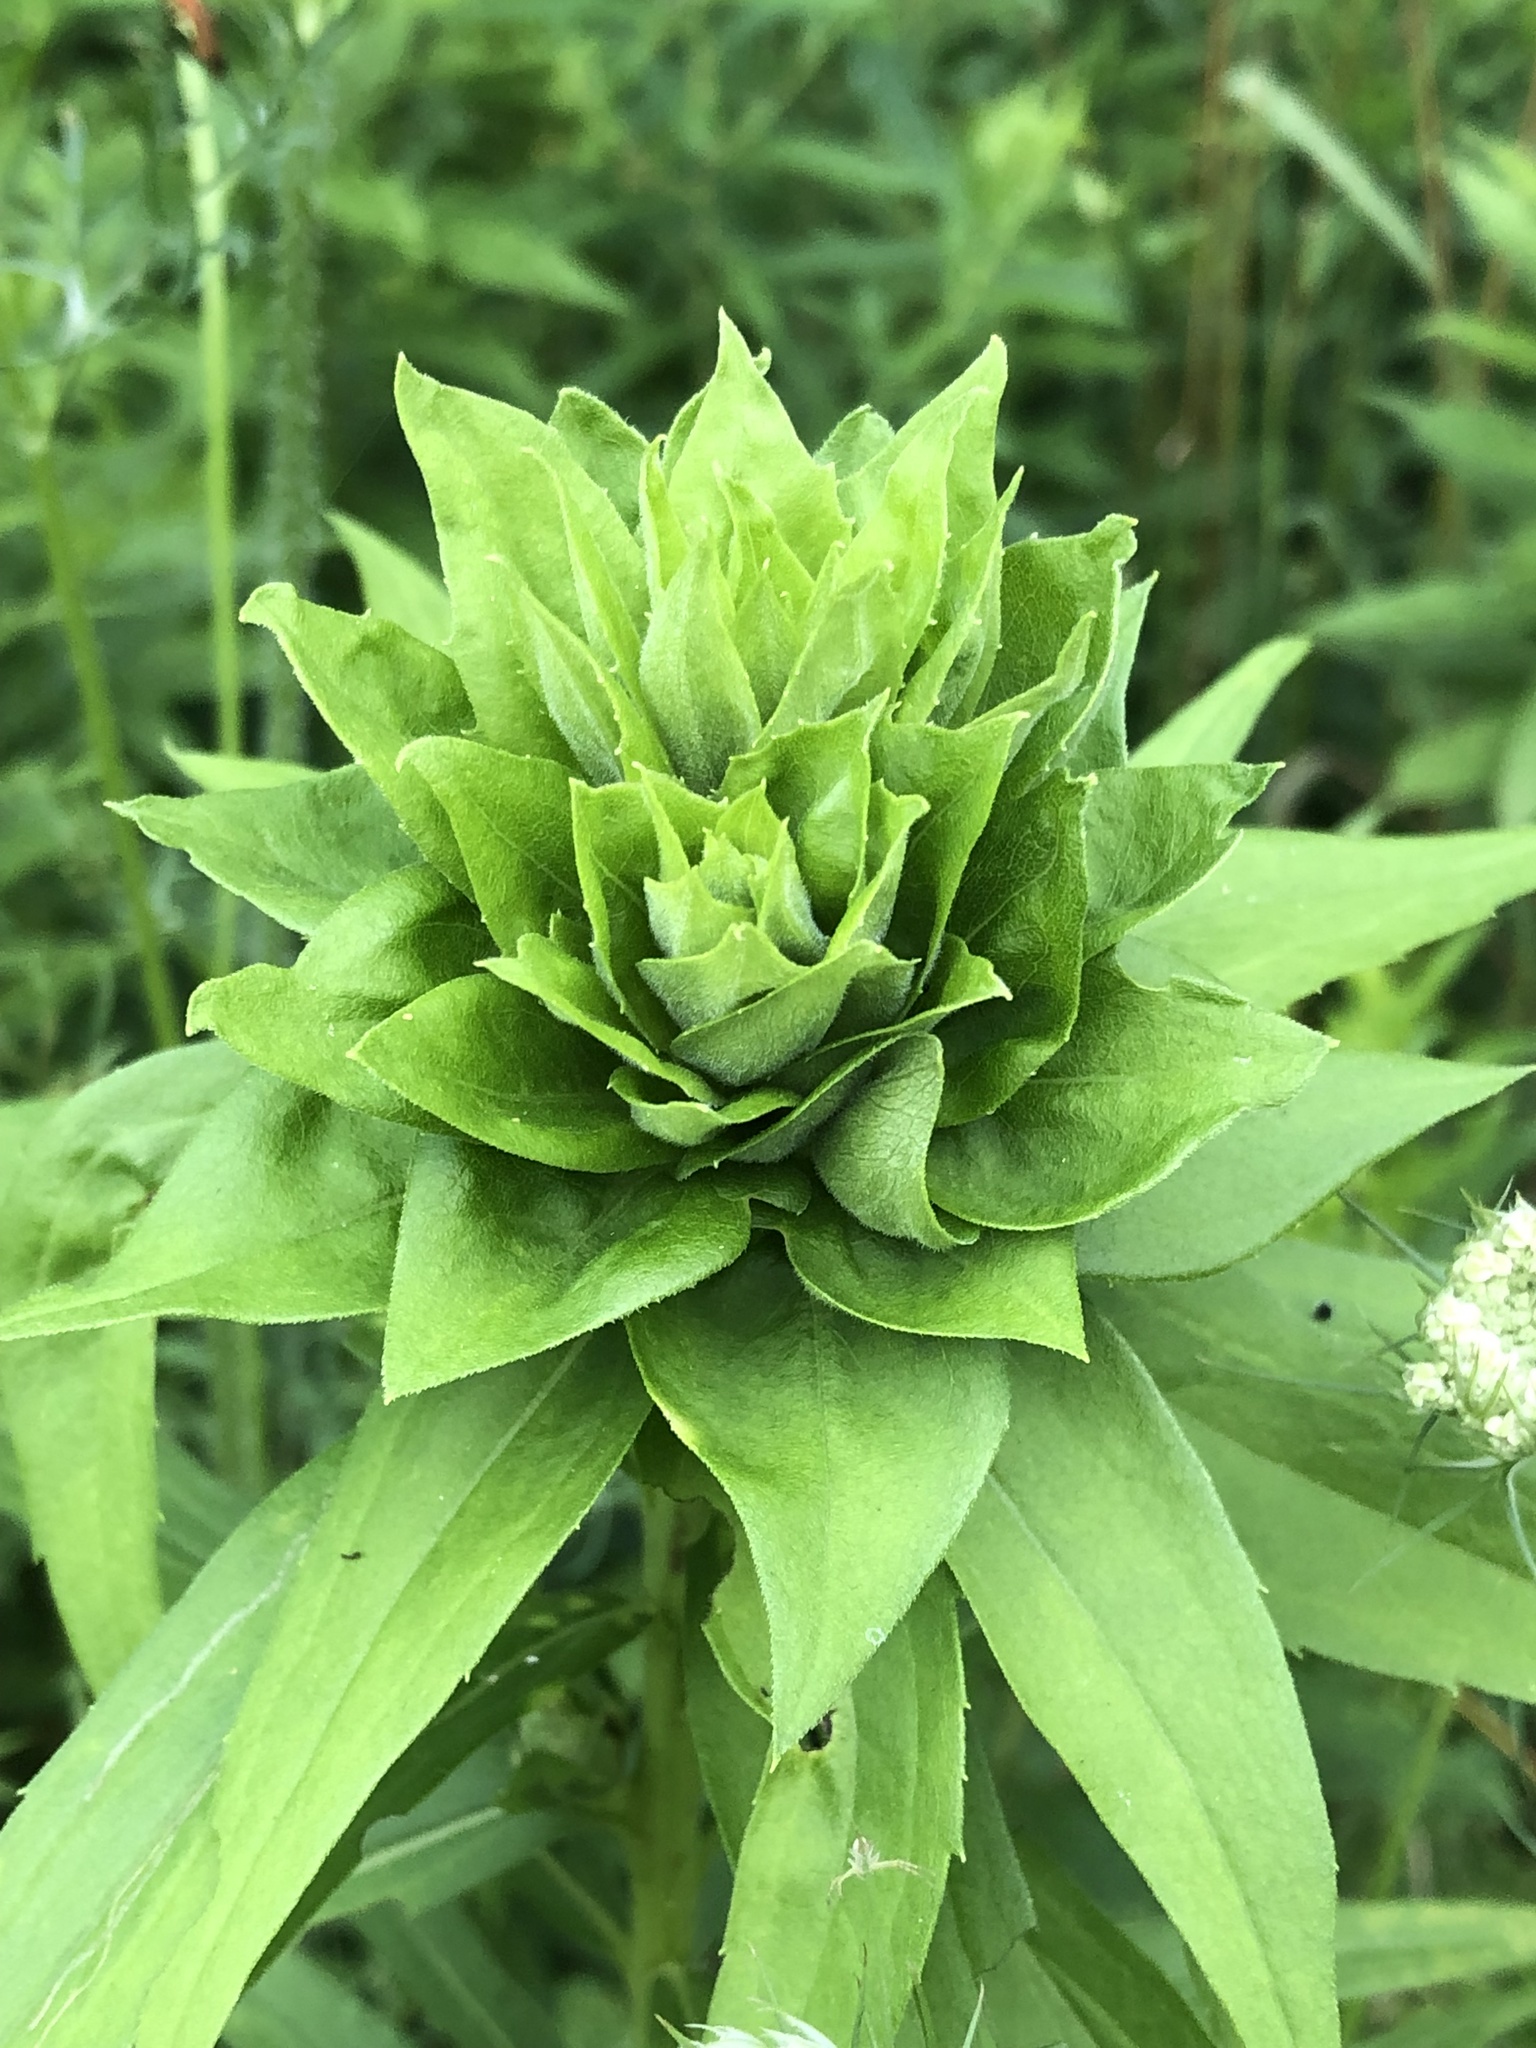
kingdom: Animalia
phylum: Arthropoda
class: Insecta
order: Diptera
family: Cecidomyiidae
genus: Rhopalomyia
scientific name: Rhopalomyia solidaginis
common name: Goldenrod bunch gall midge
